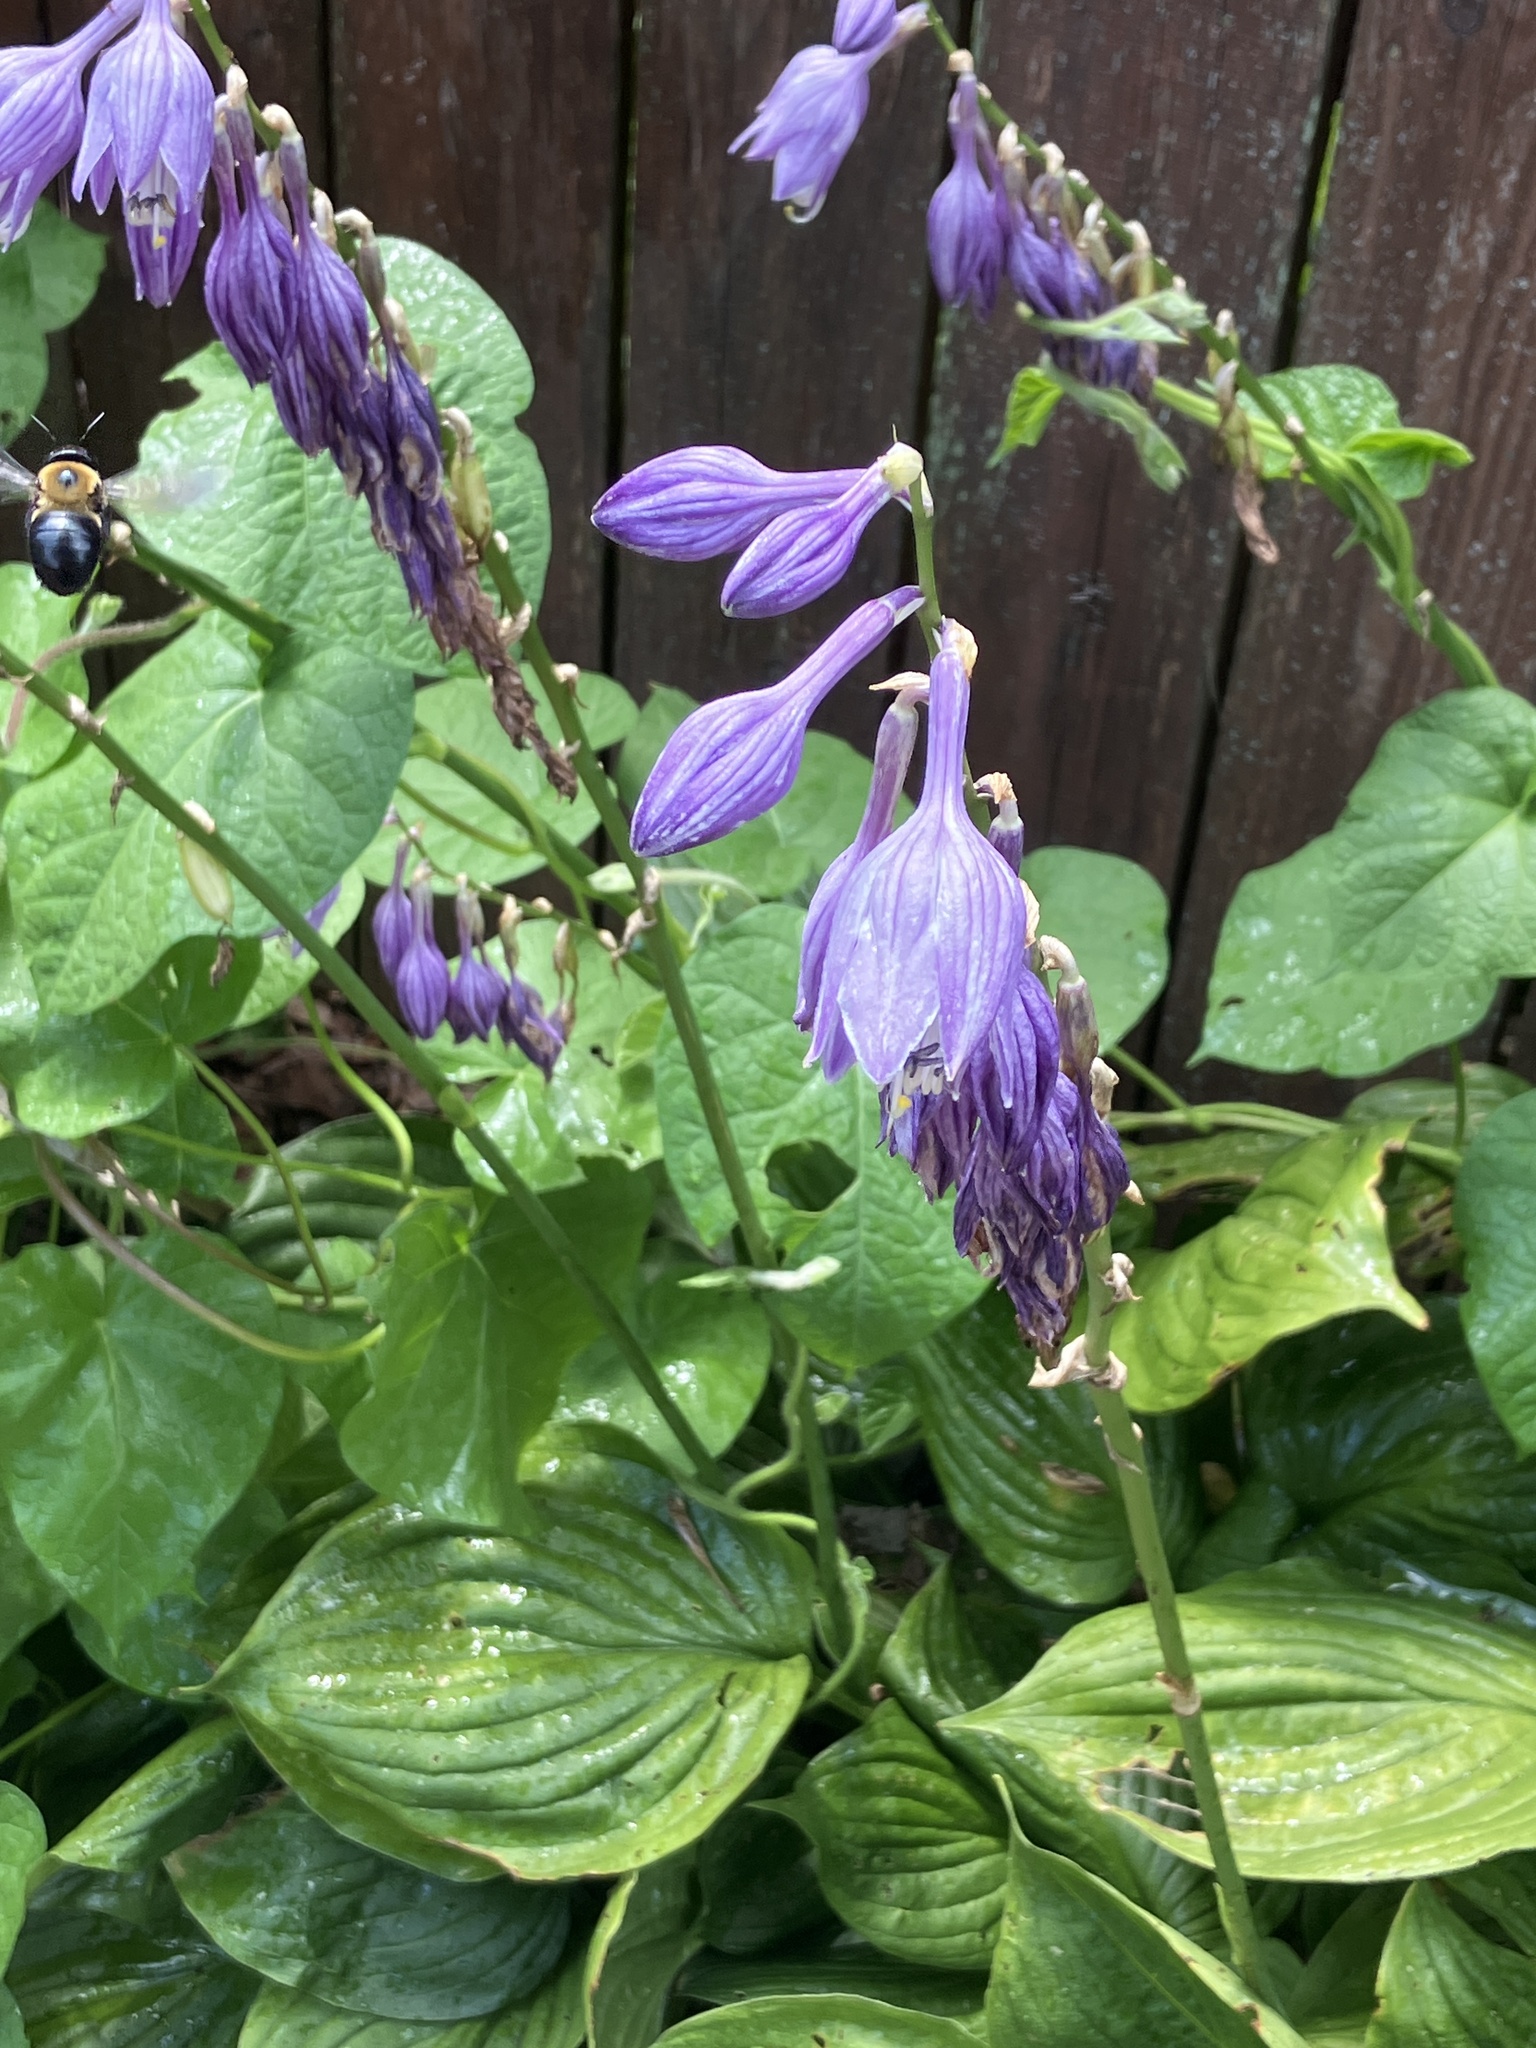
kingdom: Animalia
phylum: Arthropoda
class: Insecta
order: Hymenoptera
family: Apidae
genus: Xylocopa
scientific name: Xylocopa virginica
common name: Carpenter bee
